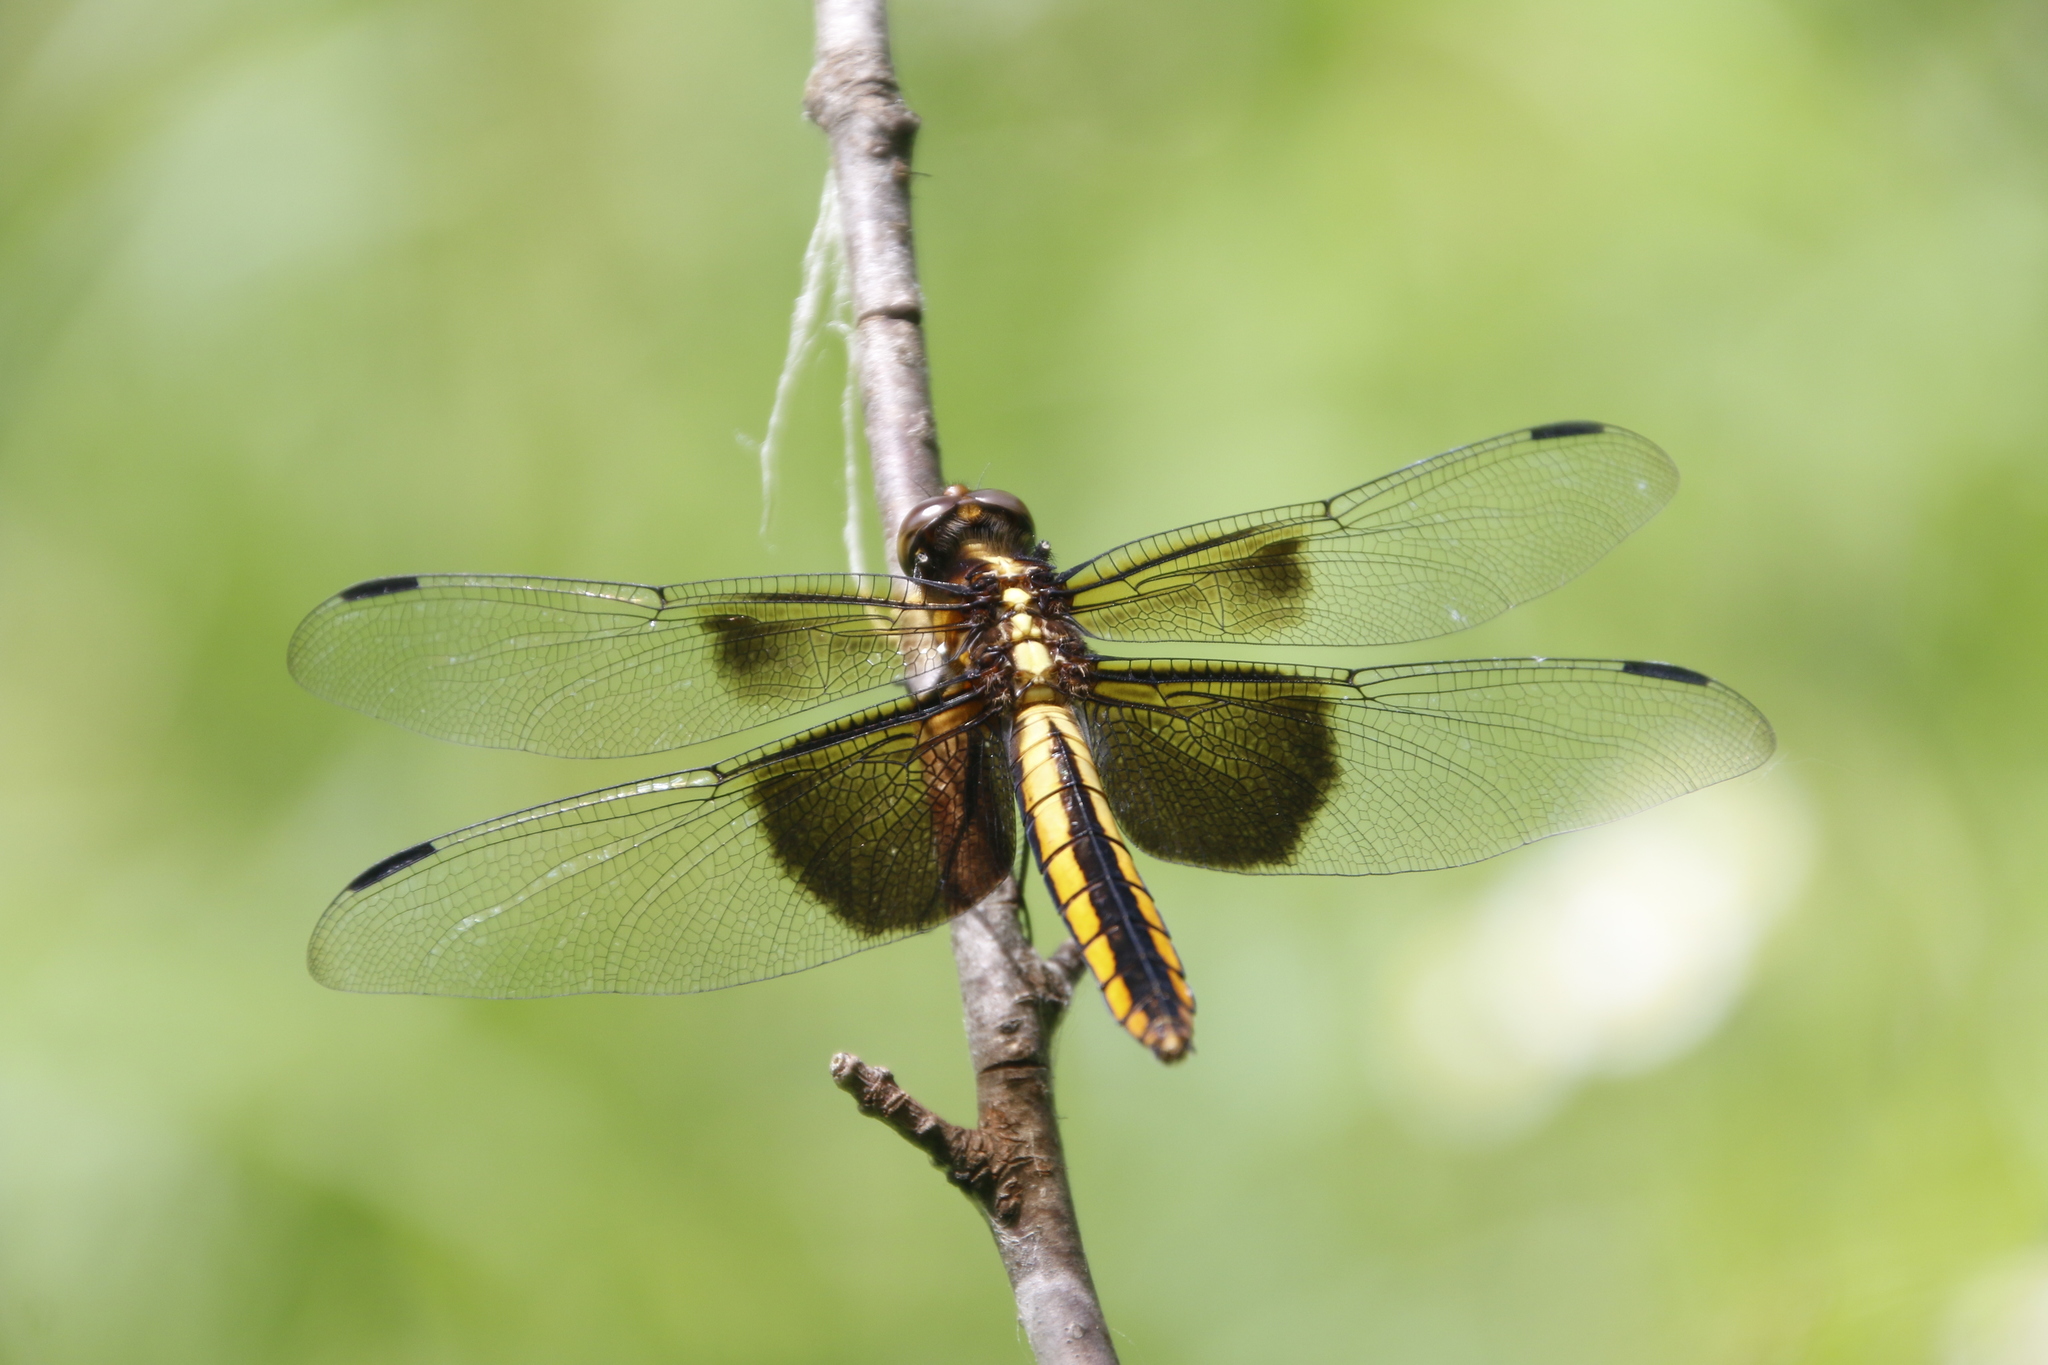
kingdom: Animalia
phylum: Arthropoda
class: Insecta
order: Odonata
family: Libellulidae
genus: Libellula
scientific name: Libellula luctuosa
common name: Widow skimmer
